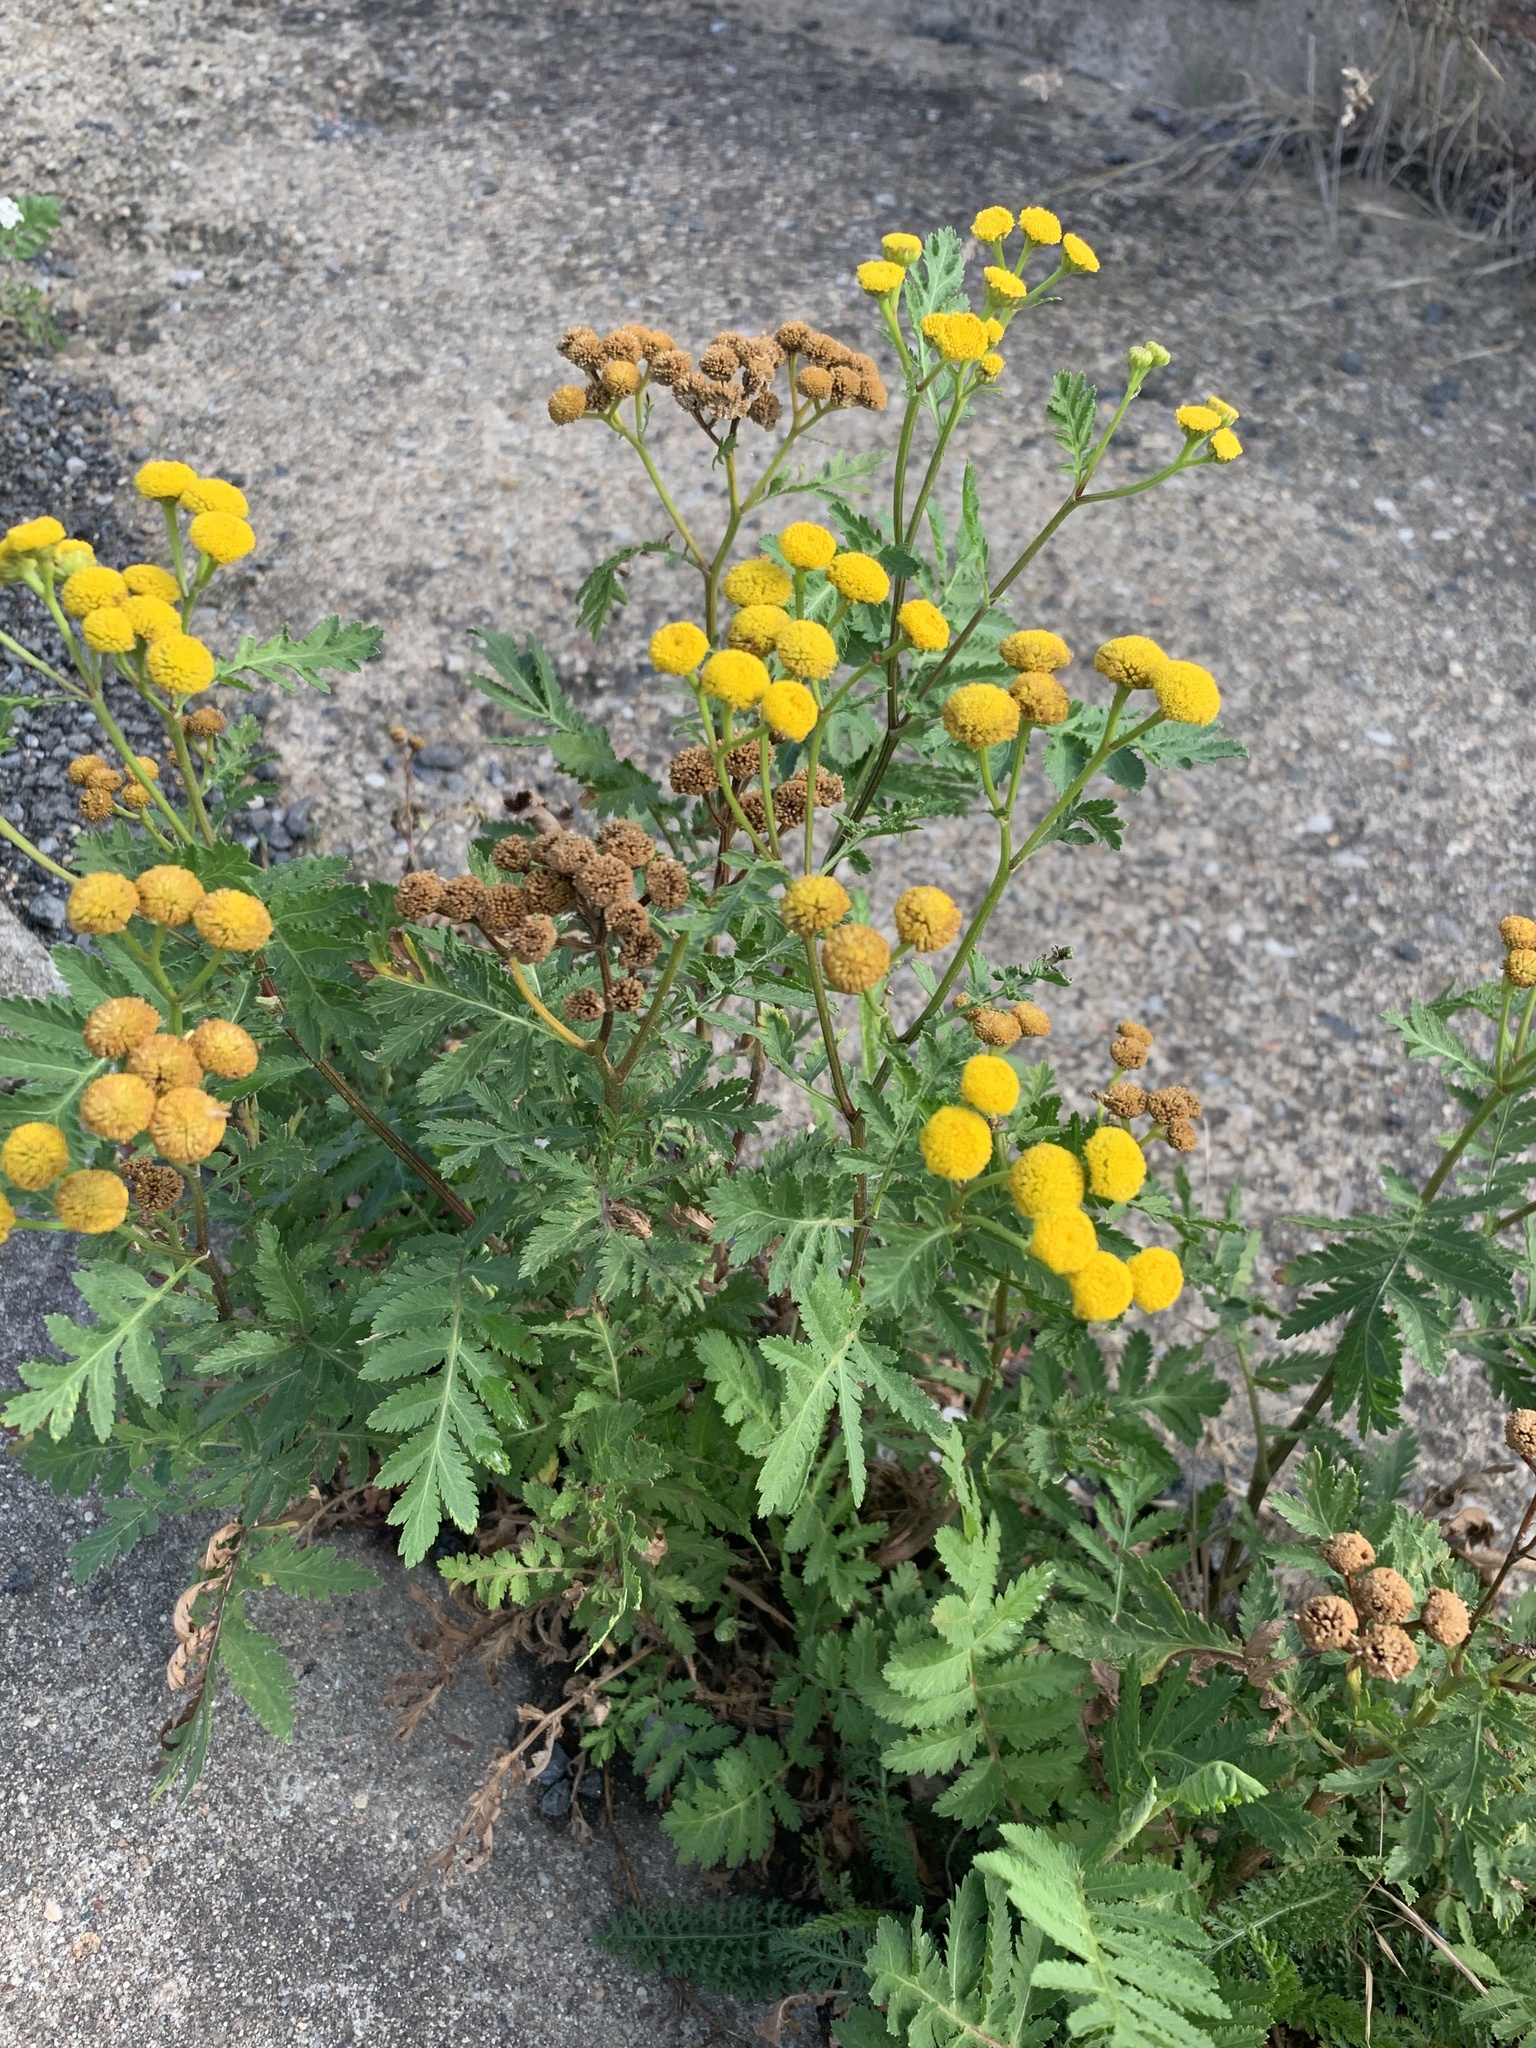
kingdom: Plantae
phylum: Tracheophyta
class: Magnoliopsida
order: Asterales
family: Asteraceae
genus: Tanacetum
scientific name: Tanacetum vulgare
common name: Common tansy
